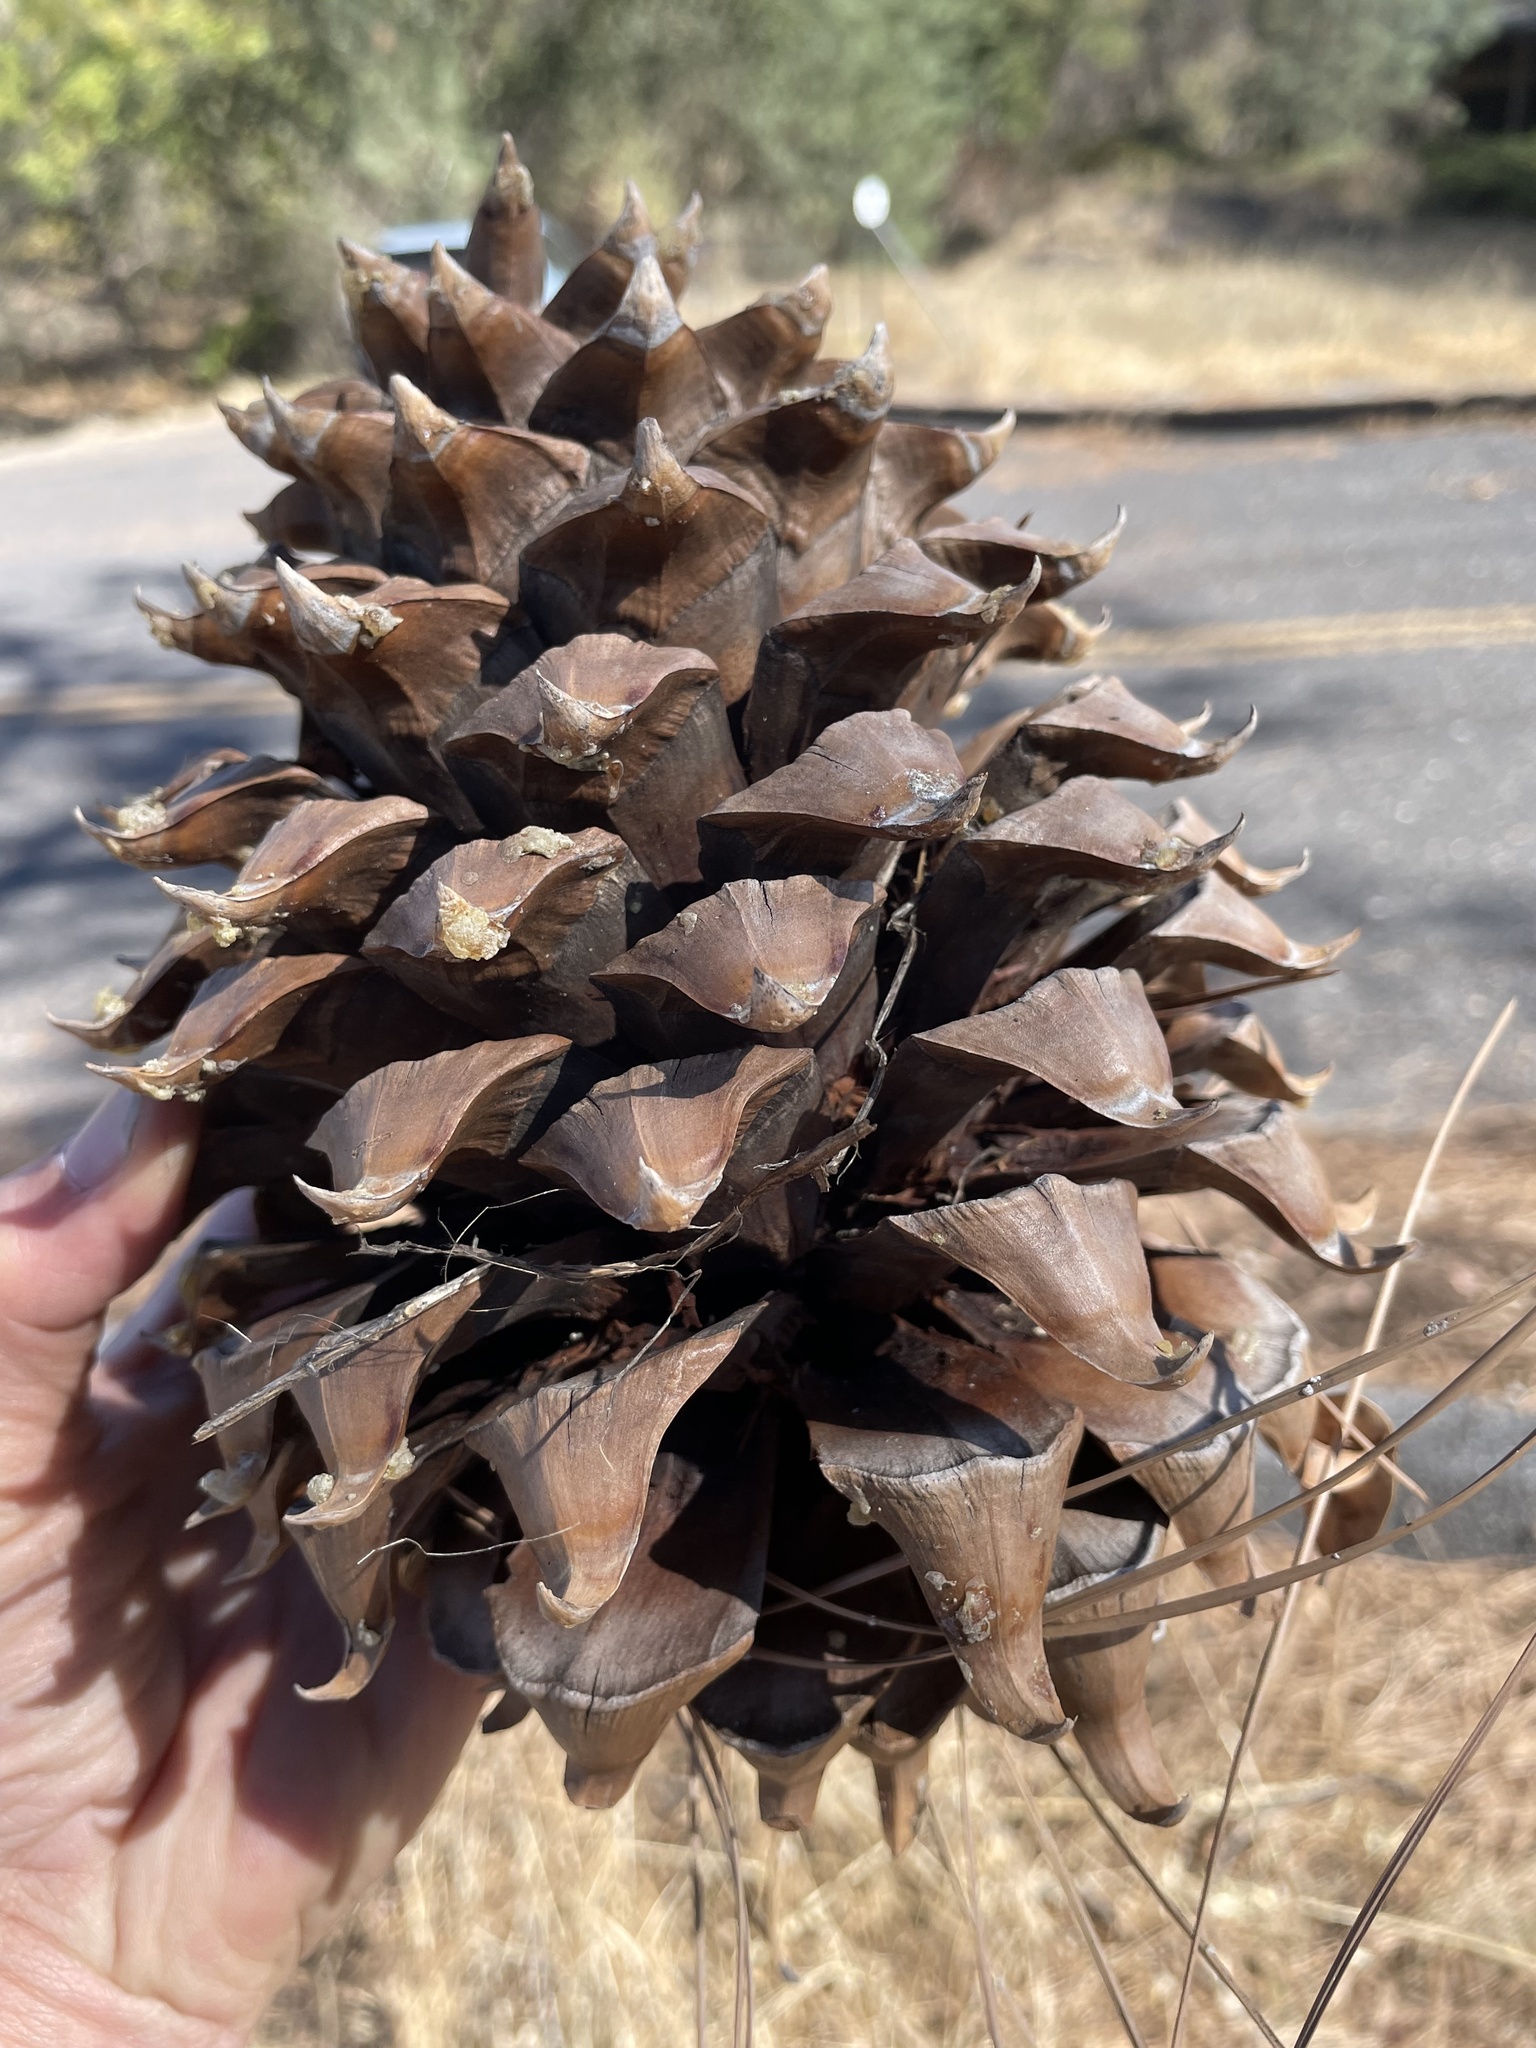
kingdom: Plantae
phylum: Tracheophyta
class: Pinopsida
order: Pinales
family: Pinaceae
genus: Pinus
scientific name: Pinus sabiniana
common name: Bull pine
